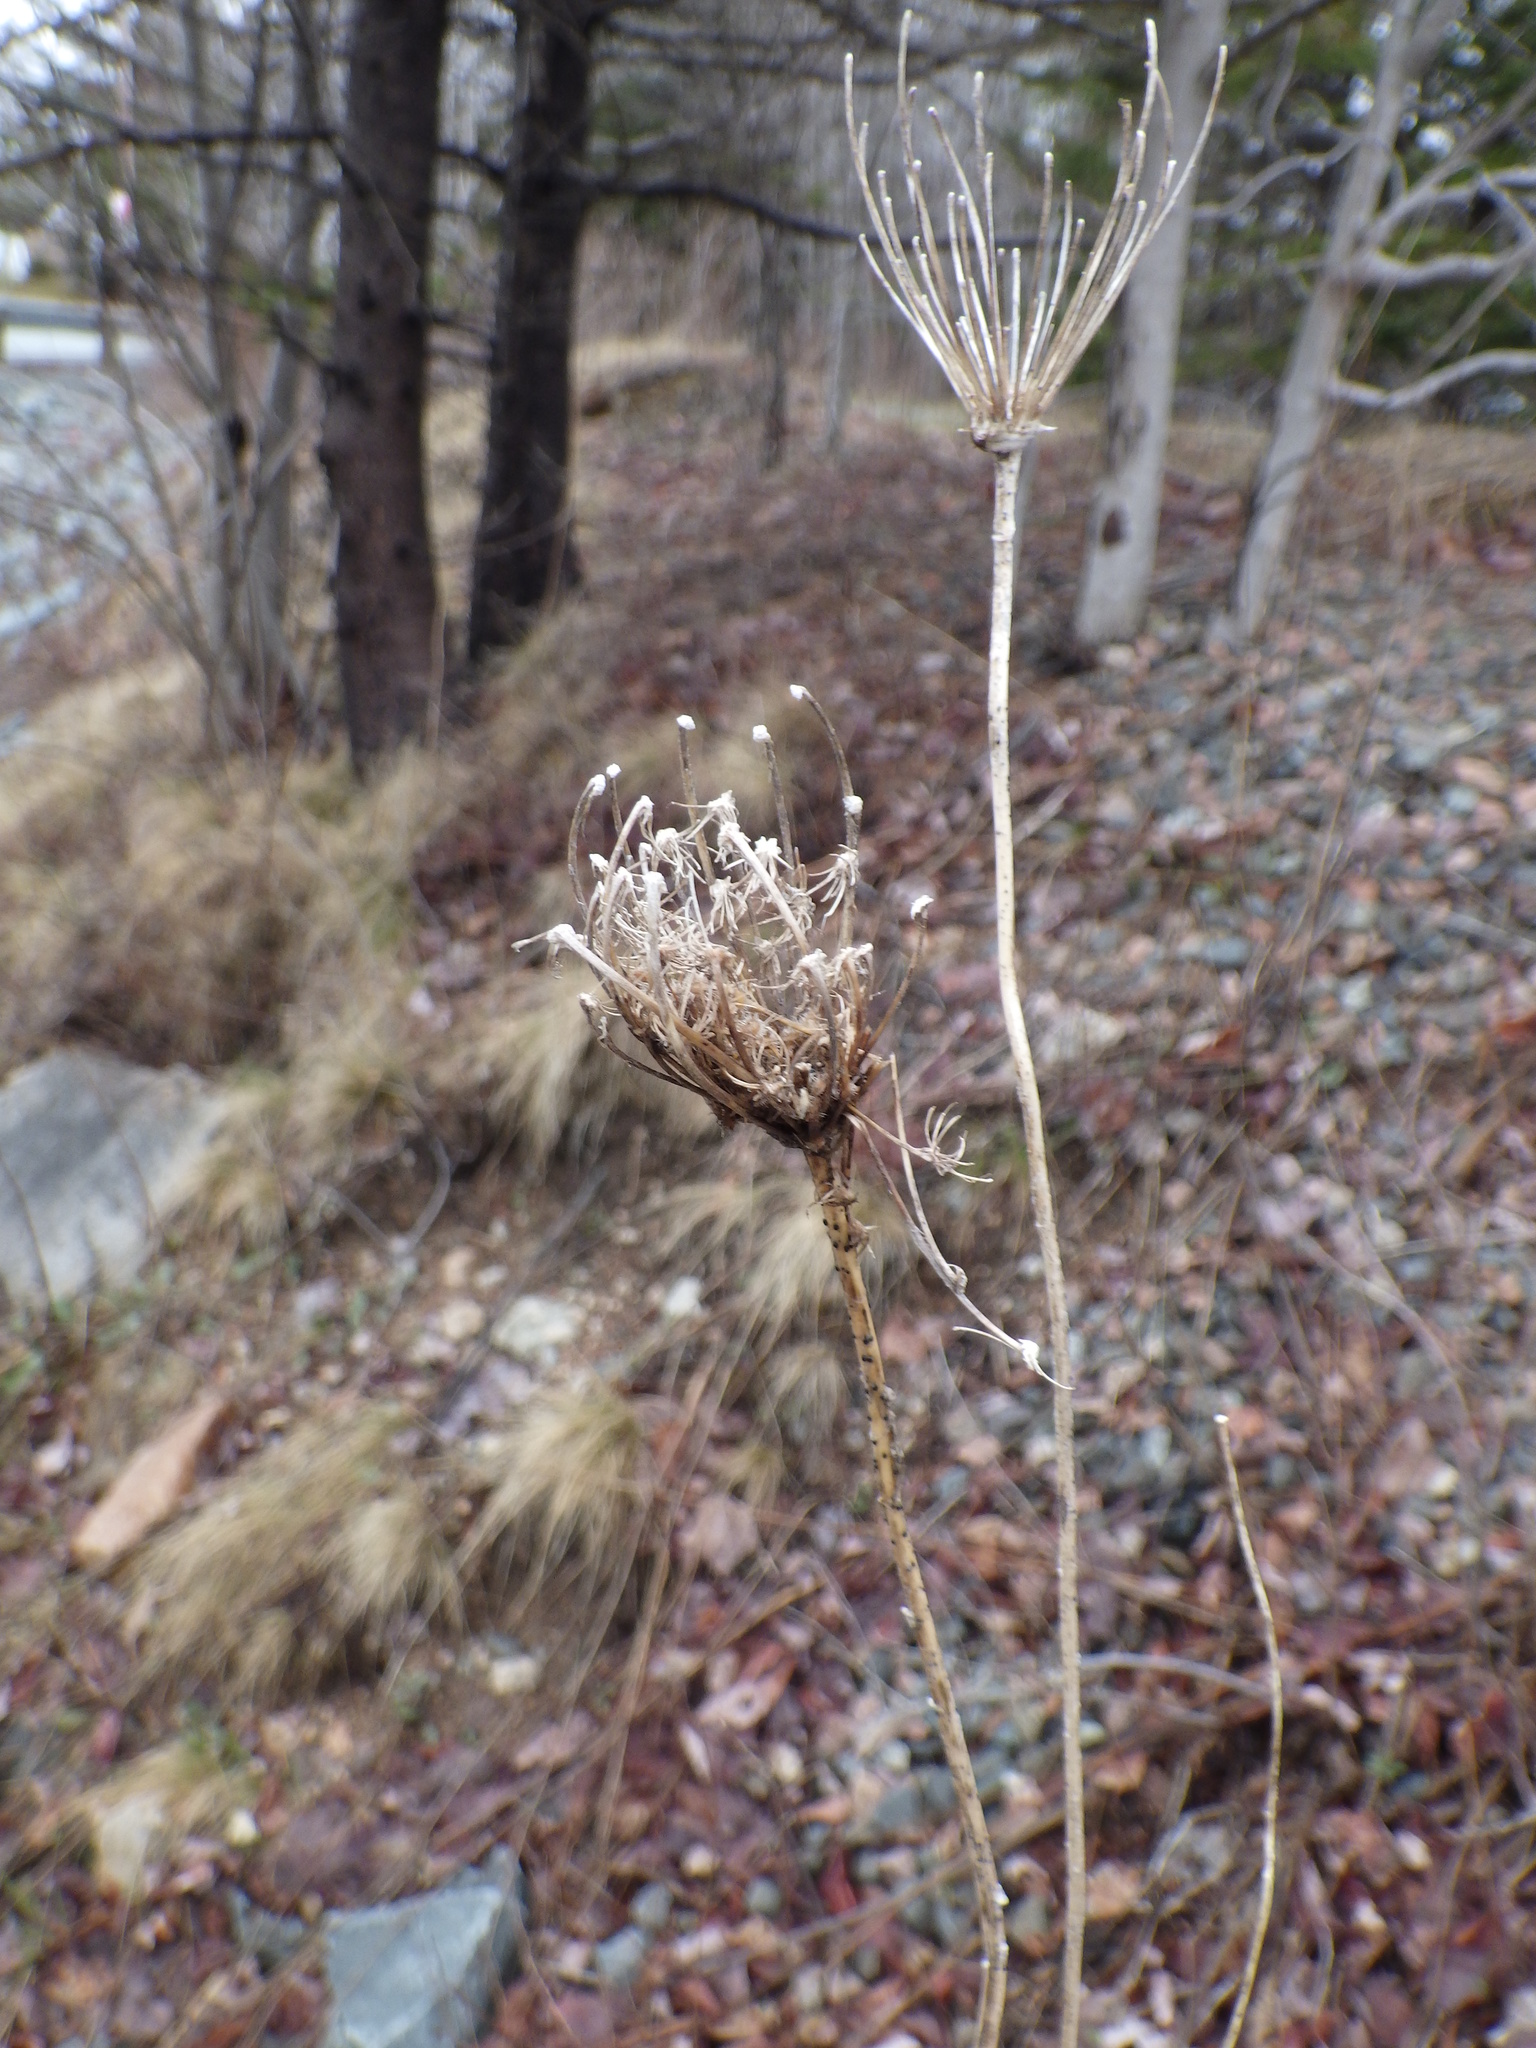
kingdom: Plantae
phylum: Tracheophyta
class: Magnoliopsida
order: Apiales
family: Apiaceae
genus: Daucus
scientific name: Daucus carota
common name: Wild carrot
